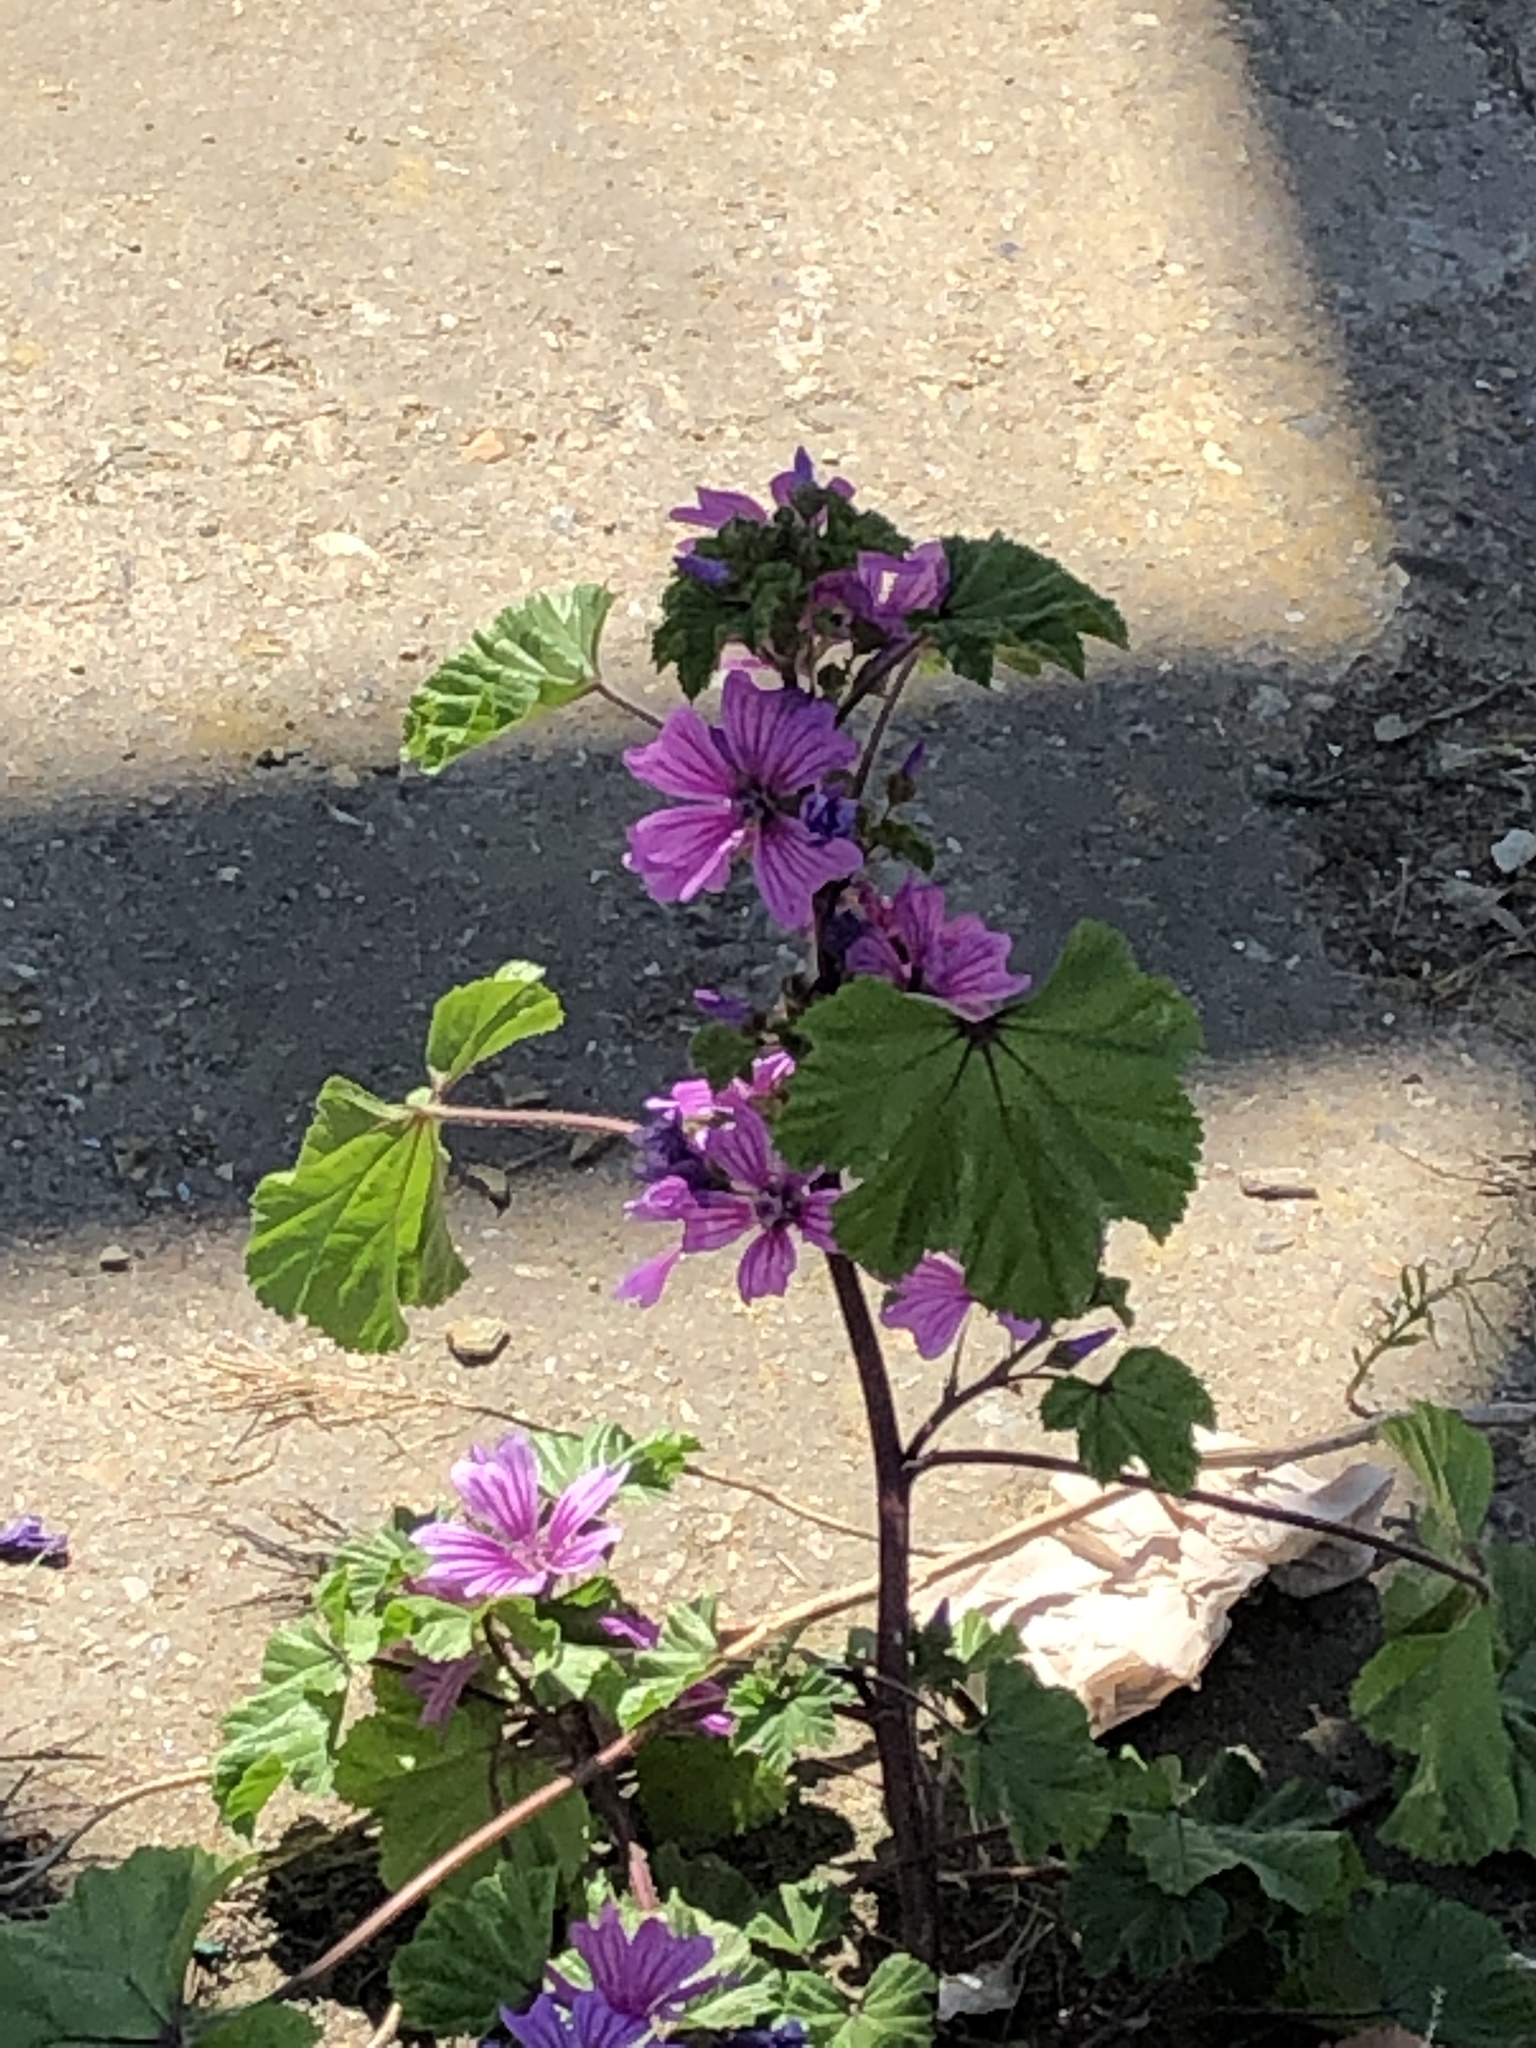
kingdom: Plantae
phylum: Tracheophyta
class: Magnoliopsida
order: Malvales
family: Malvaceae
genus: Malva
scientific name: Malva sylvestris
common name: Common mallow
